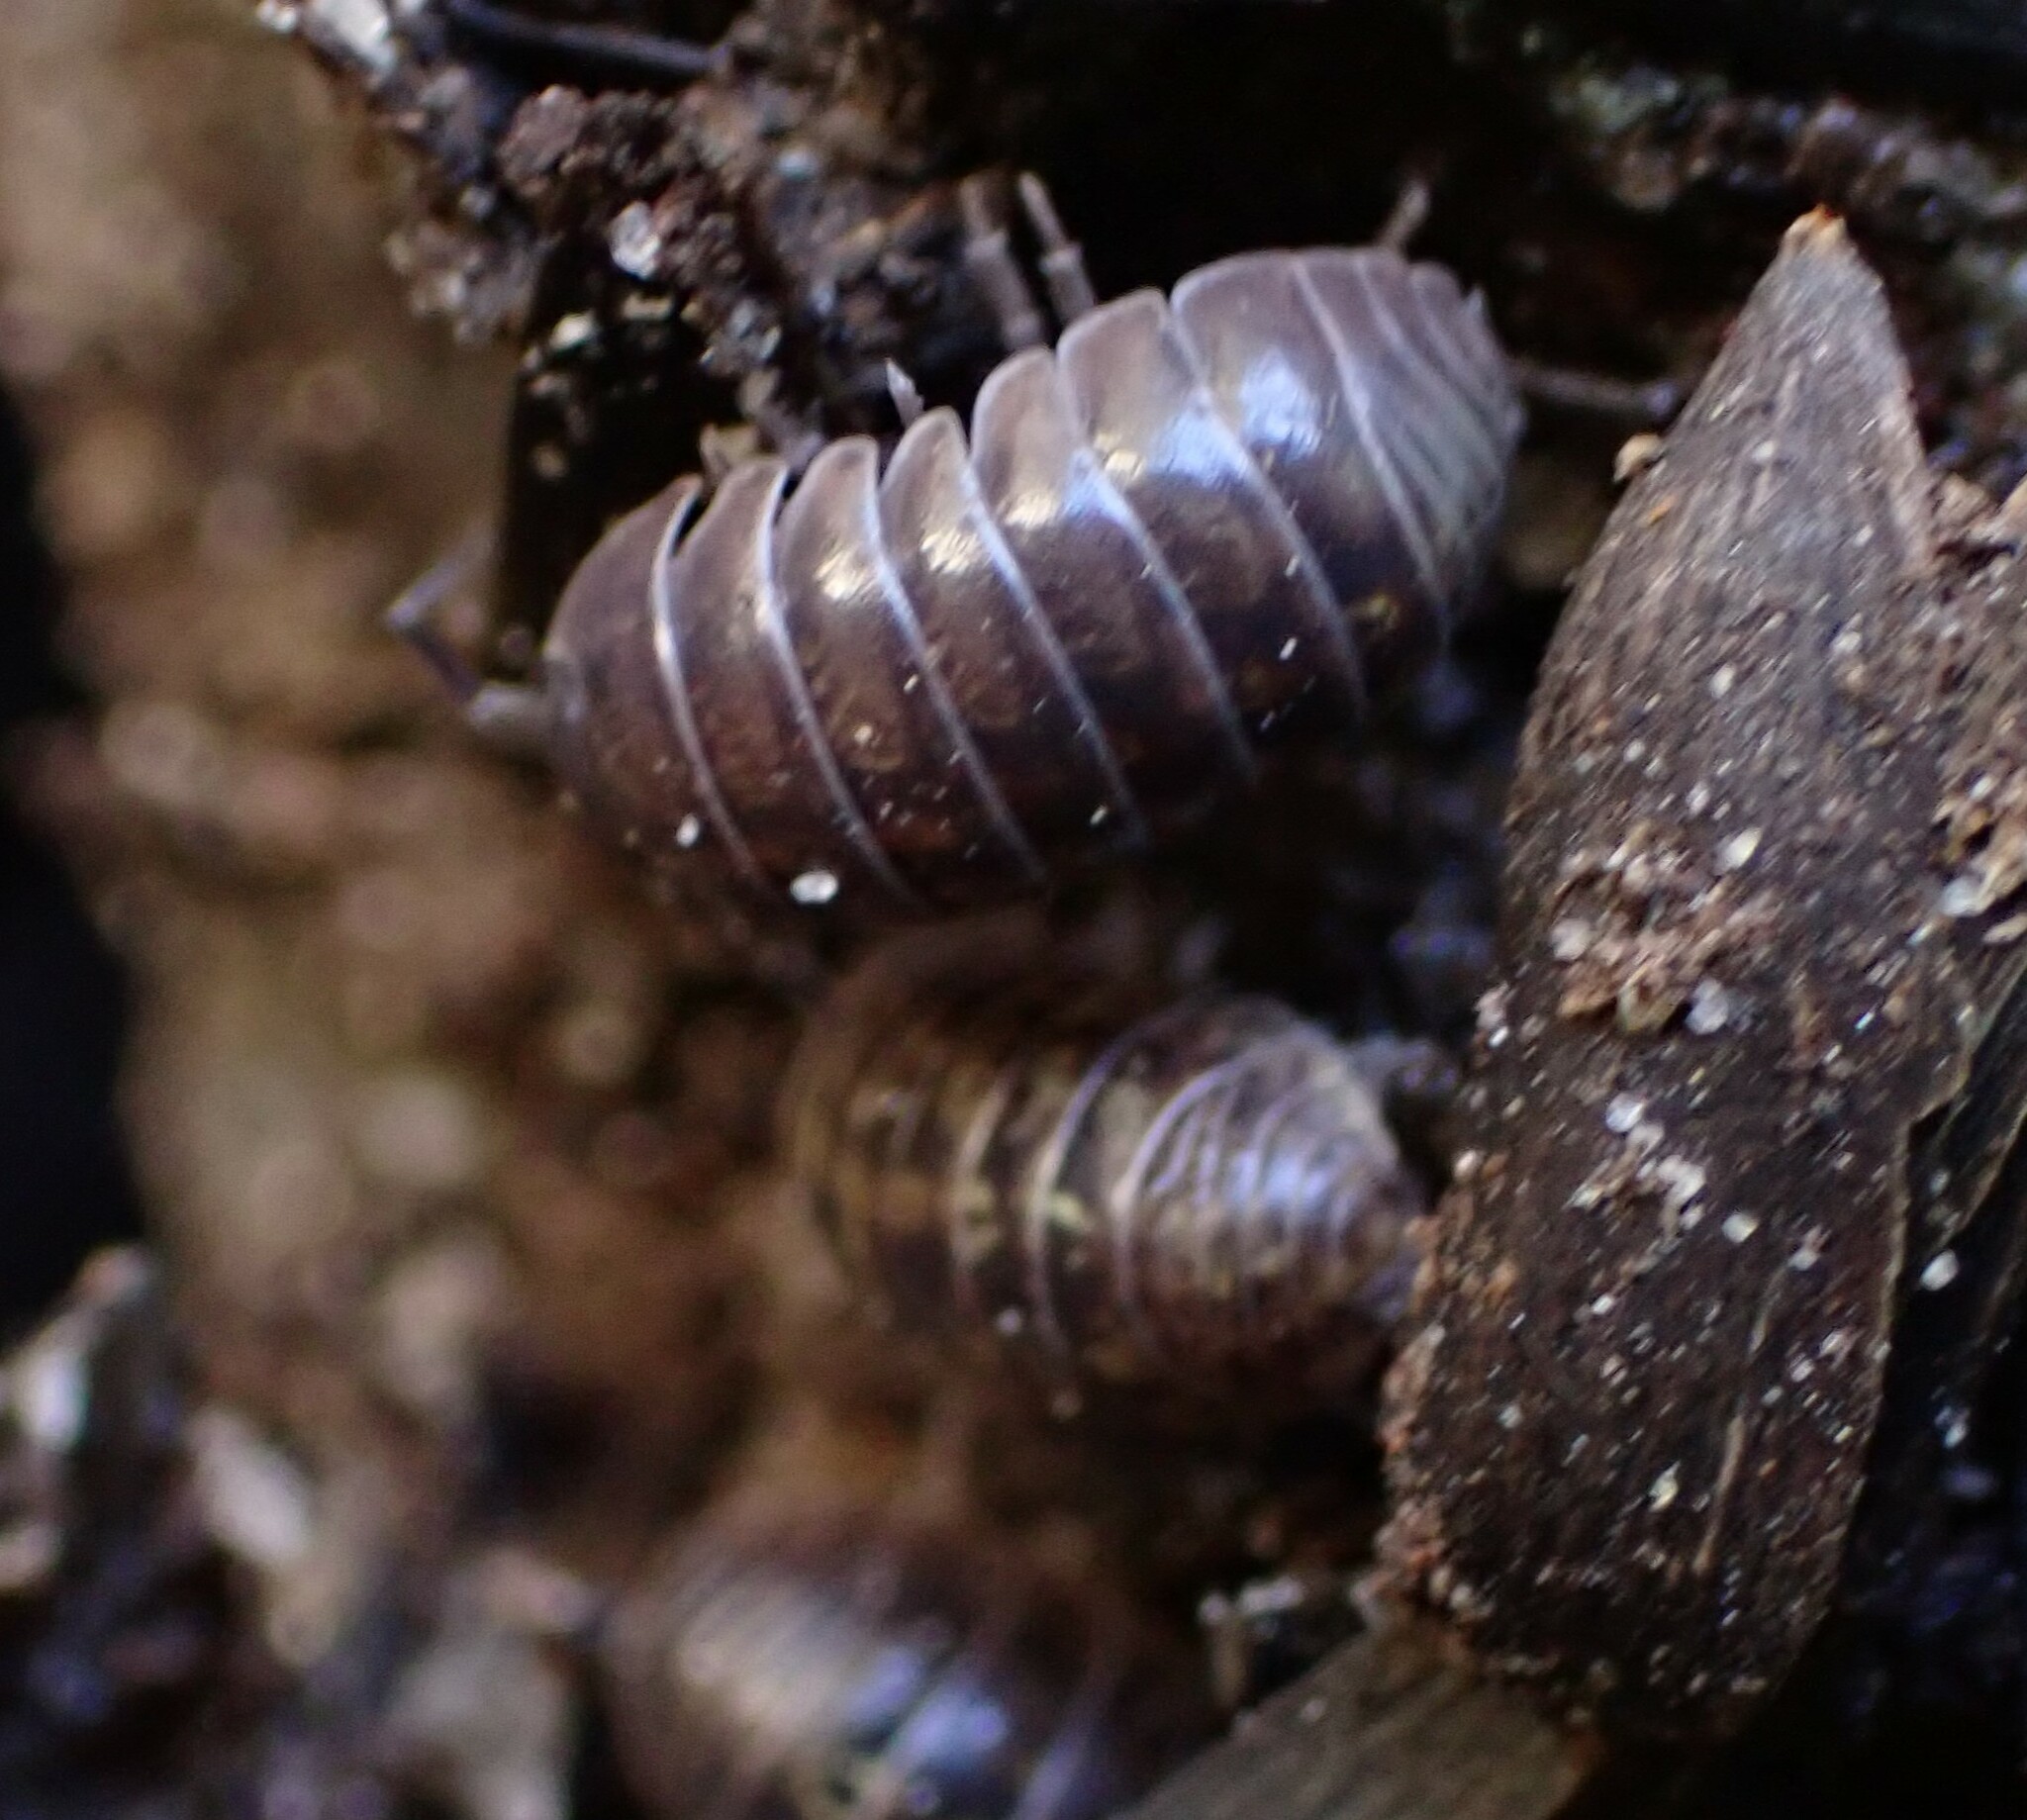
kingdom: Animalia
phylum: Arthropoda
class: Malacostraca
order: Isopoda
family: Armadillidiidae
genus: Armadillidium
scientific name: Armadillidium vulgare
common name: Common pill woodlouse
